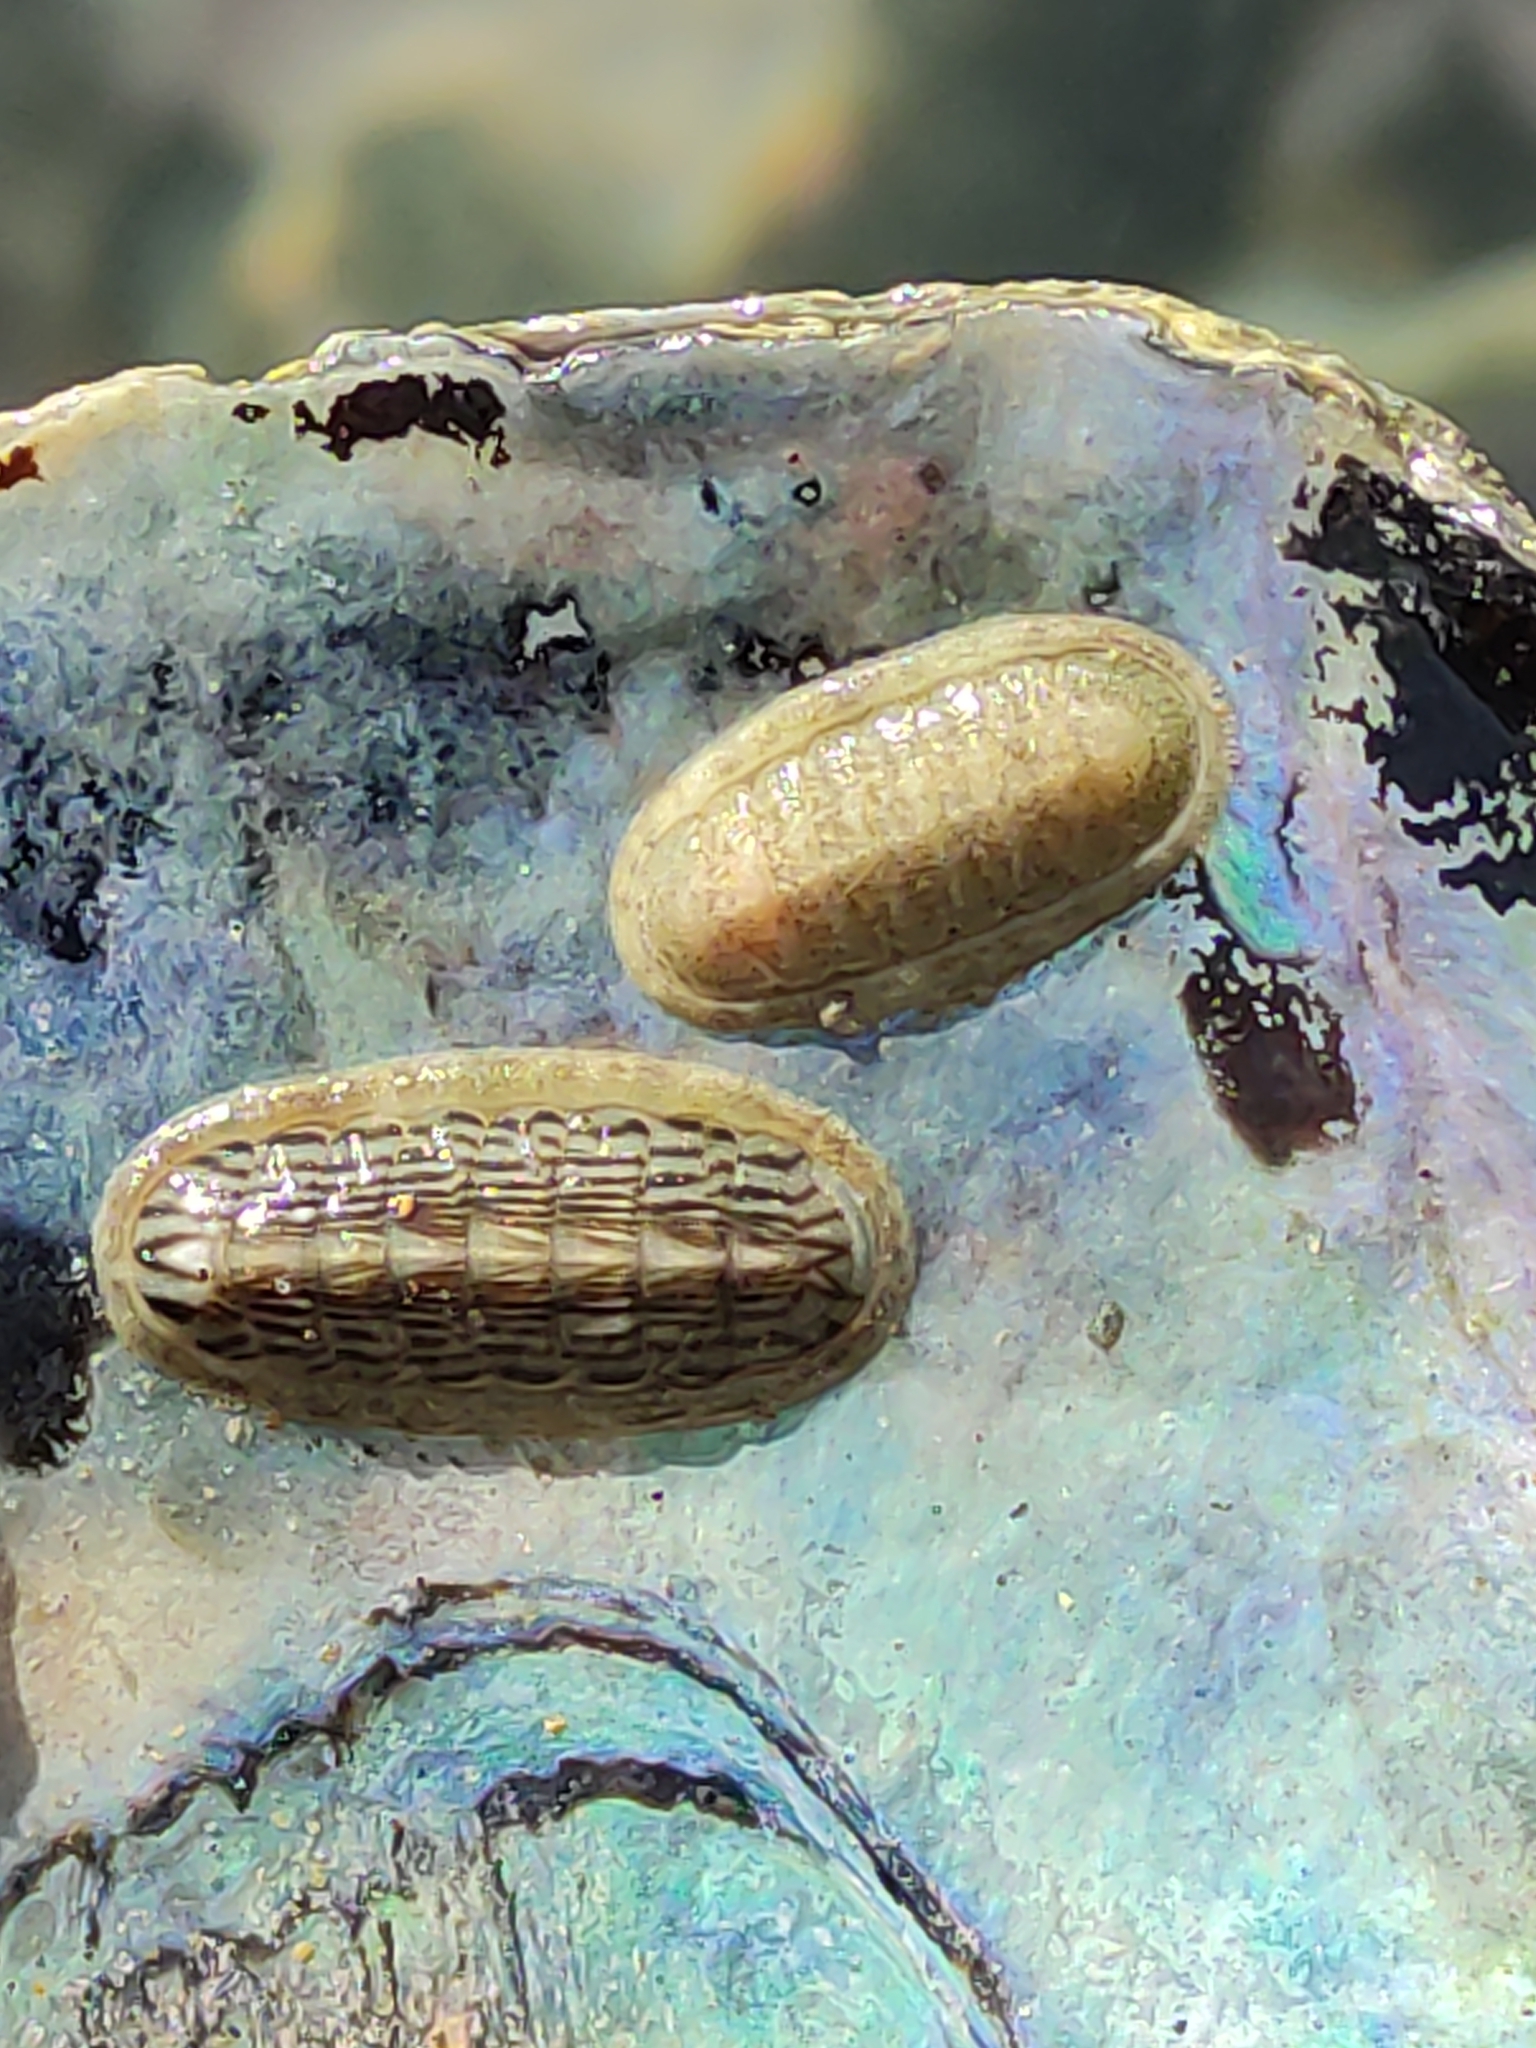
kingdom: Animalia
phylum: Mollusca
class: Polyplacophora
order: Chitonida
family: Ischnochitonidae
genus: Ischnochiton
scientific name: Ischnochiton maorianus
